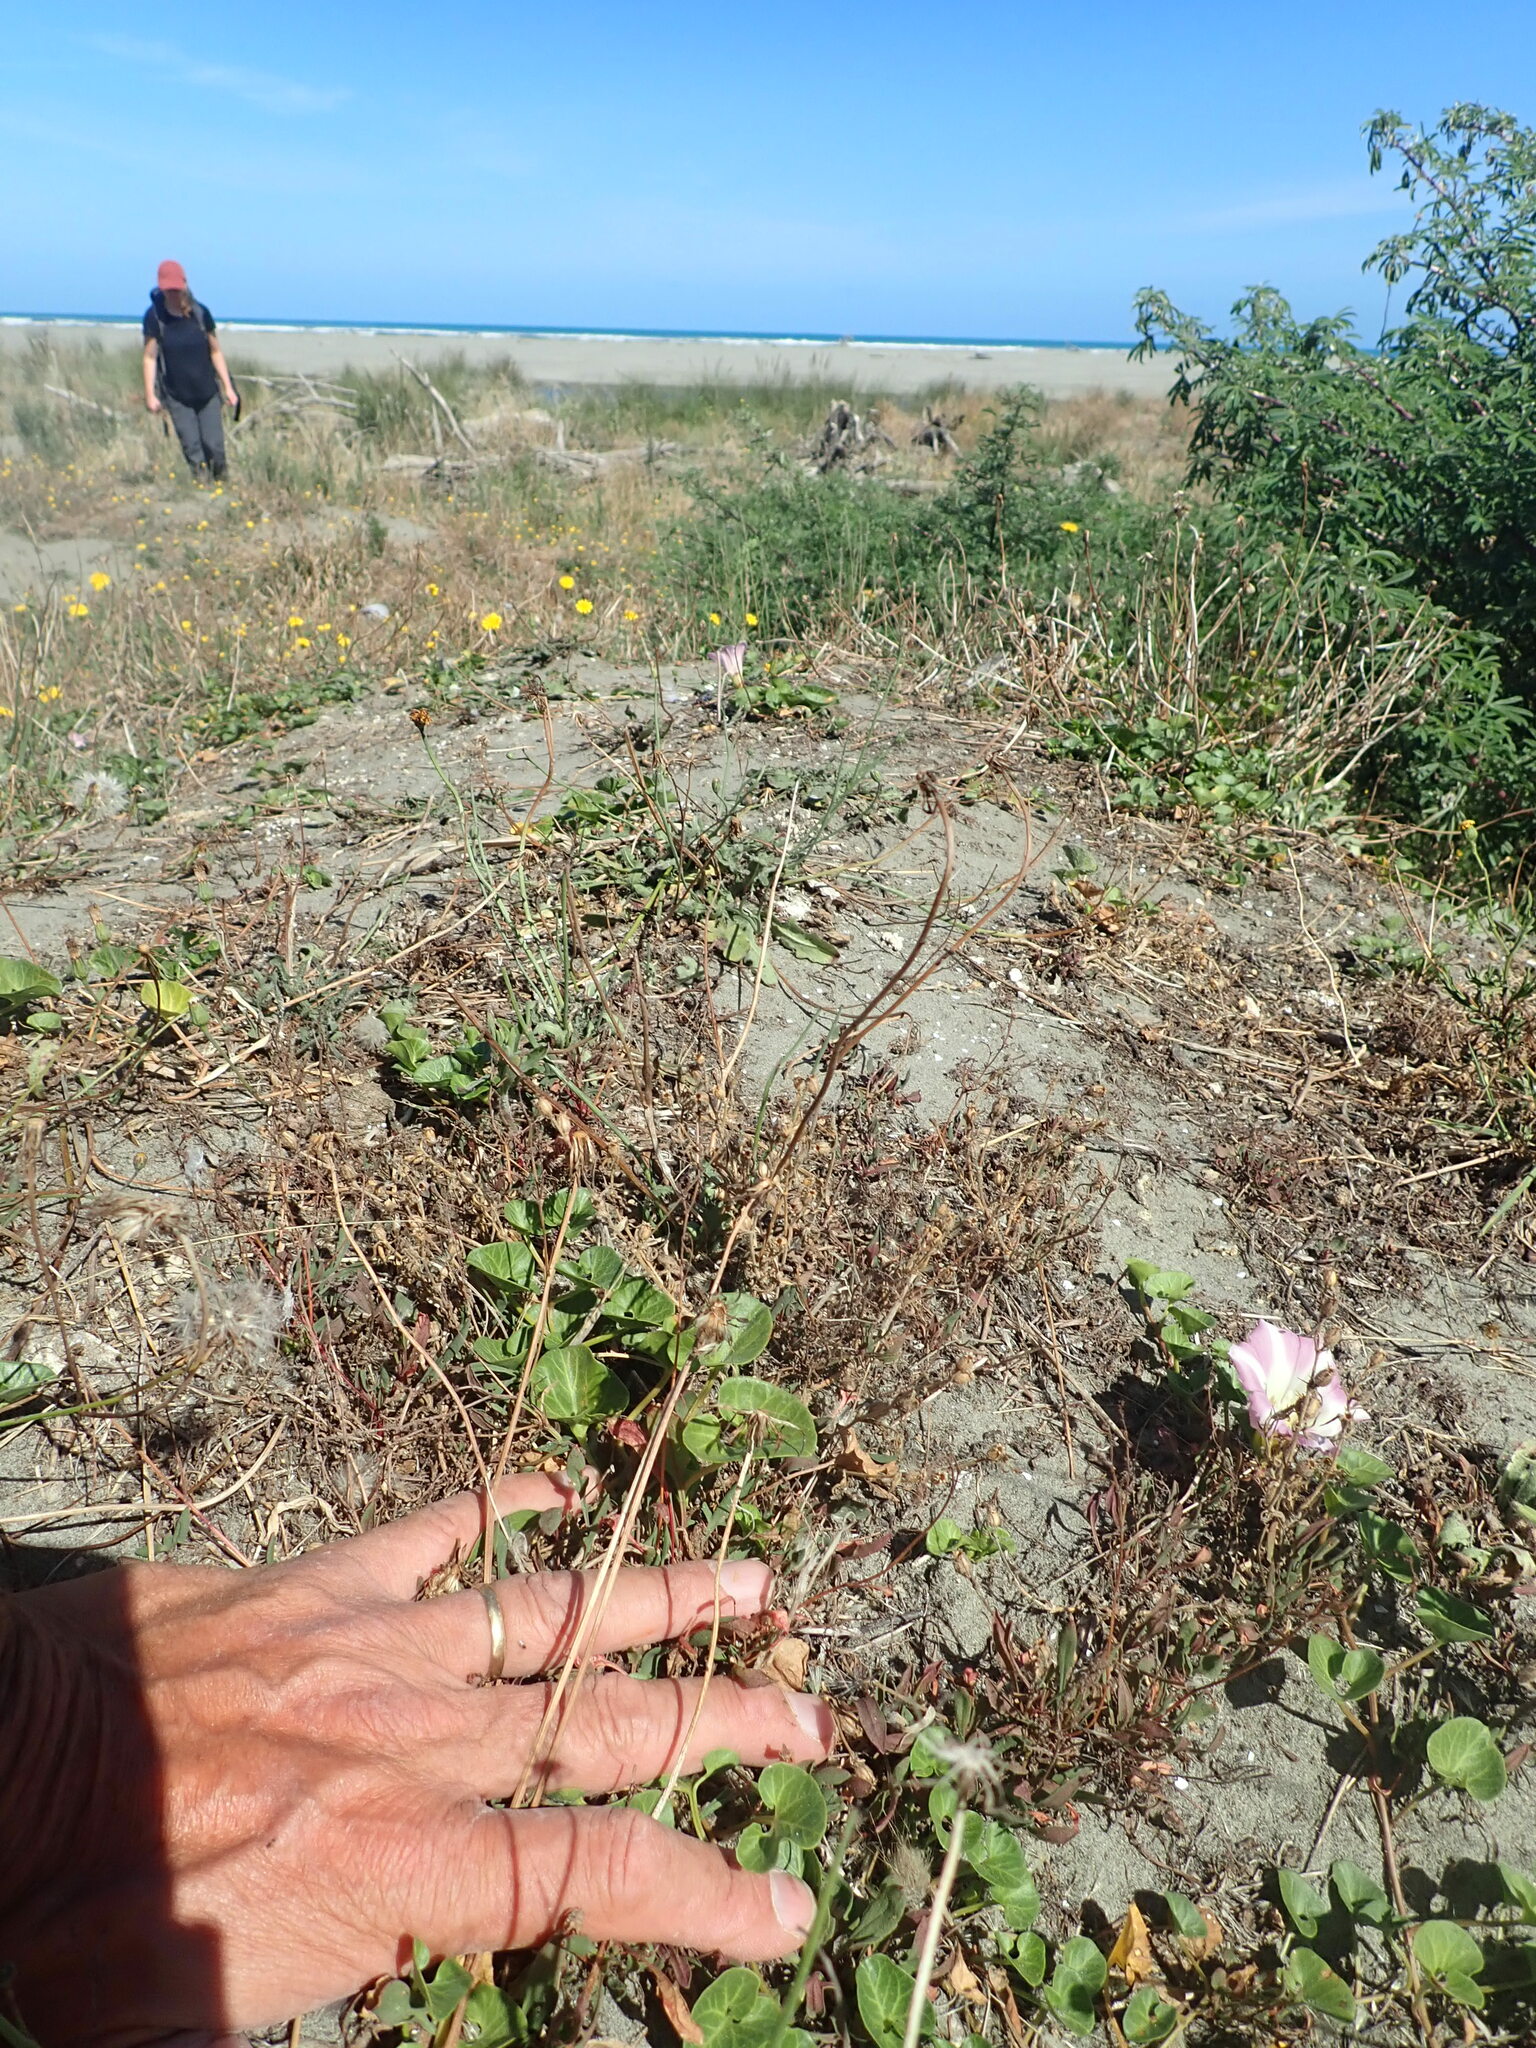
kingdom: Plantae
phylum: Tracheophyta
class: Magnoliopsida
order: Solanales
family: Convolvulaceae
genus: Calystegia
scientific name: Calystegia soldanella
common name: Sea bindweed
